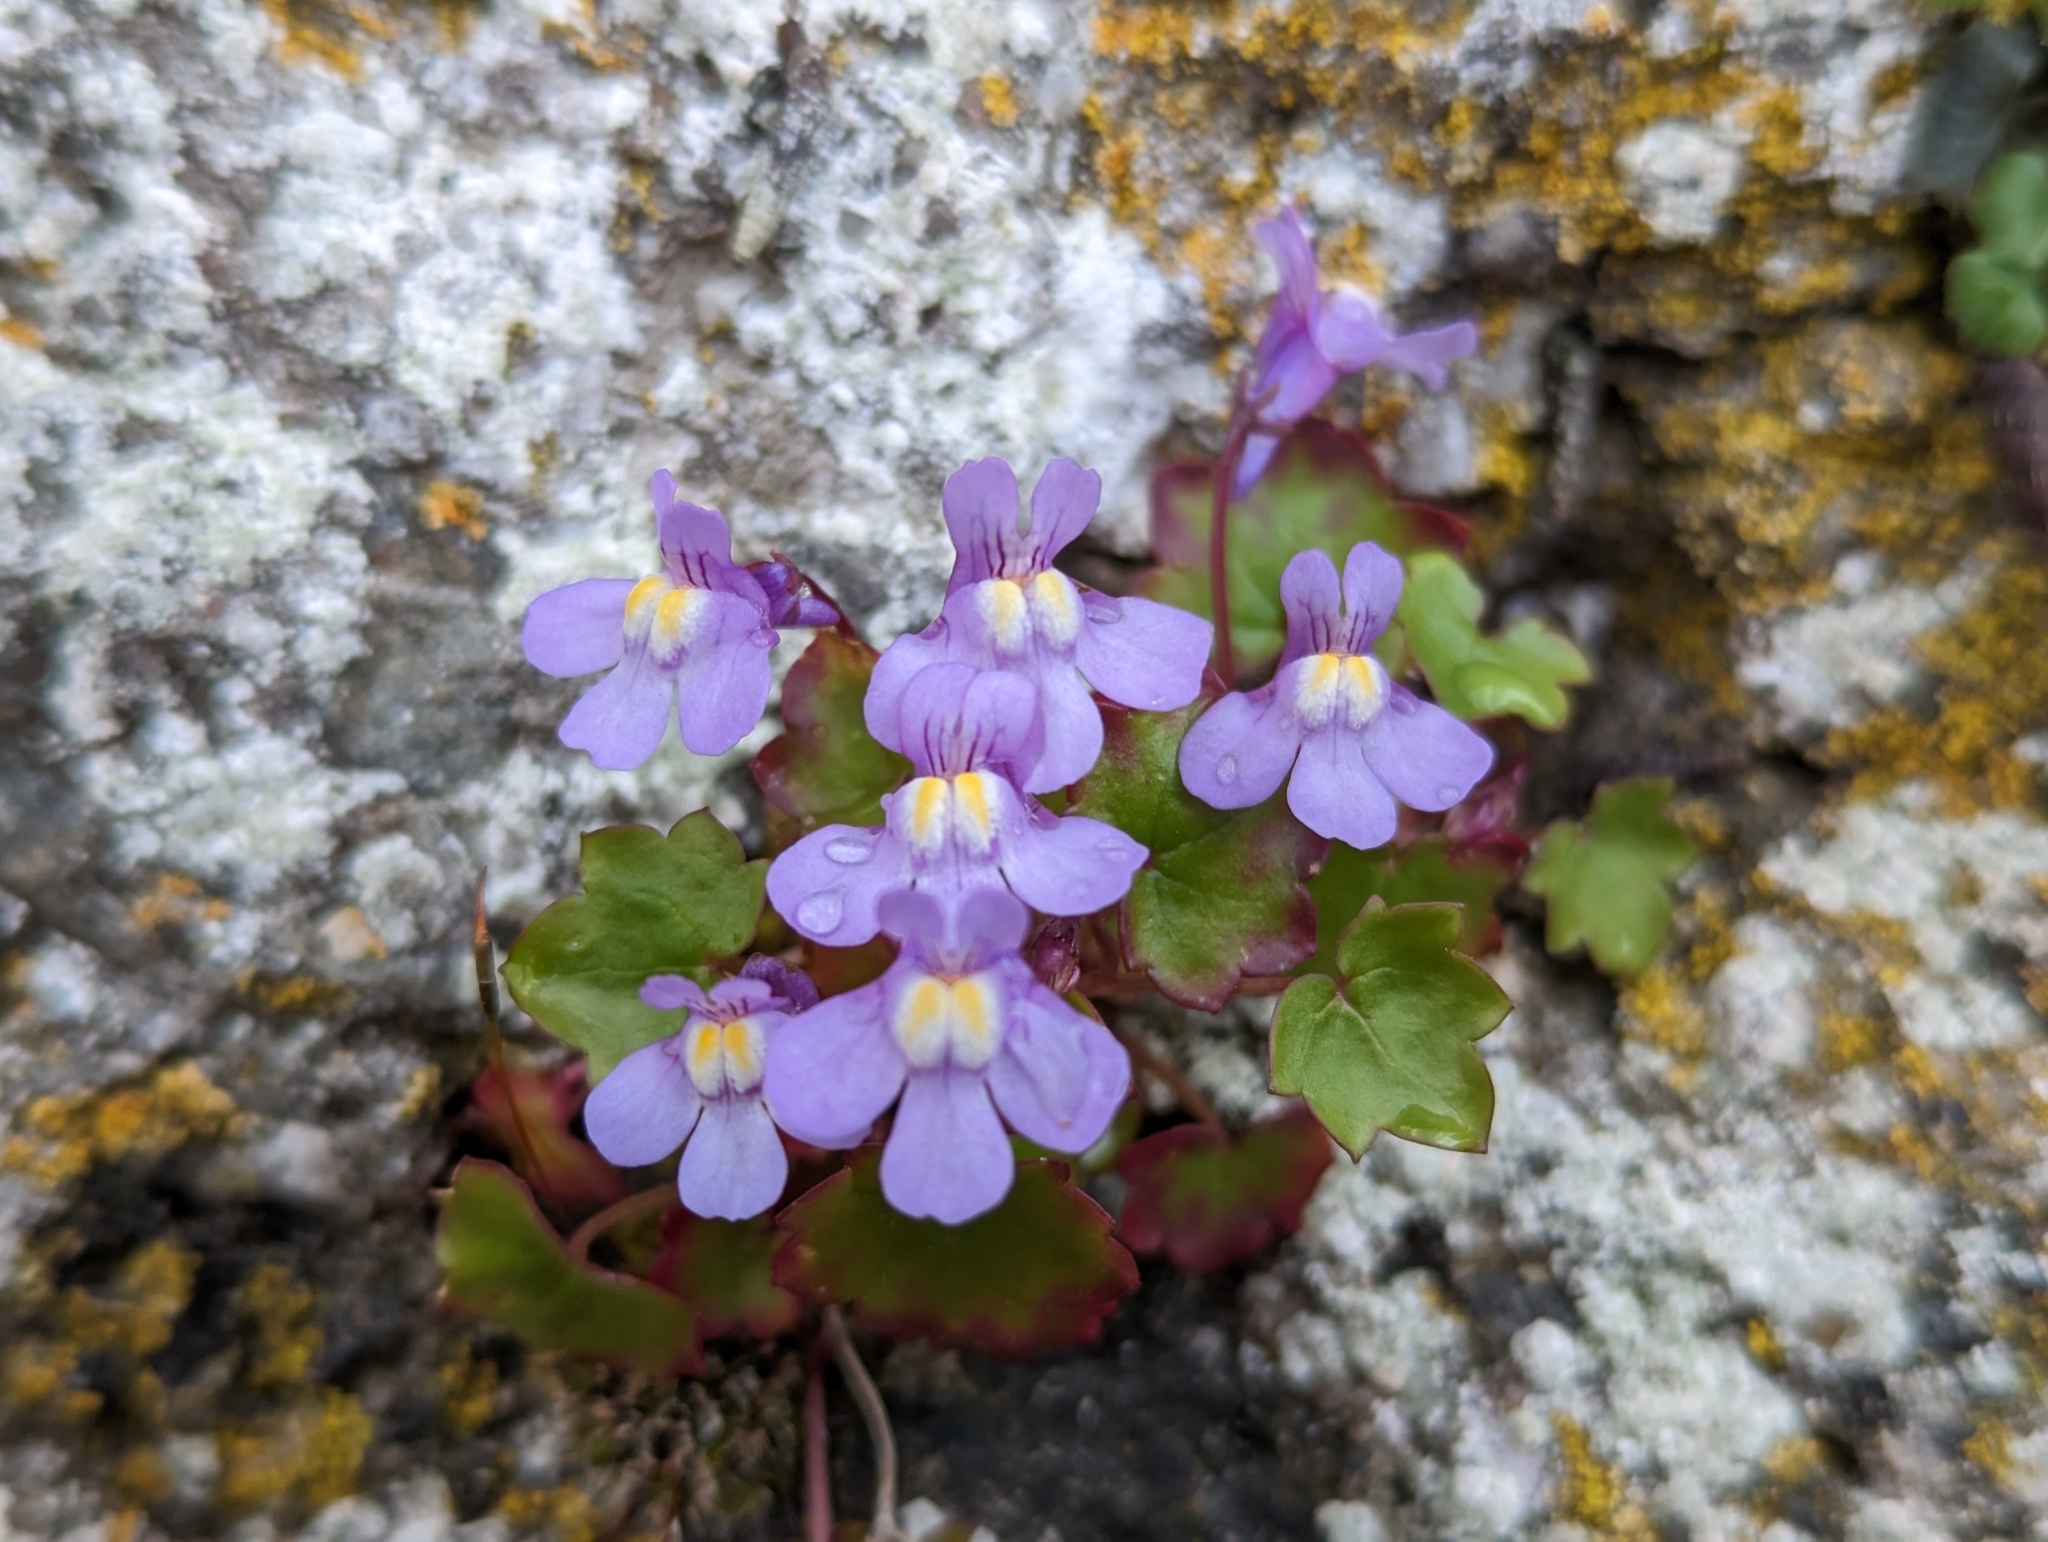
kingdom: Plantae
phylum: Tracheophyta
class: Magnoliopsida
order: Lamiales
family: Plantaginaceae
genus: Cymbalaria
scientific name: Cymbalaria muralis
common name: Ivy-leaved toadflax
